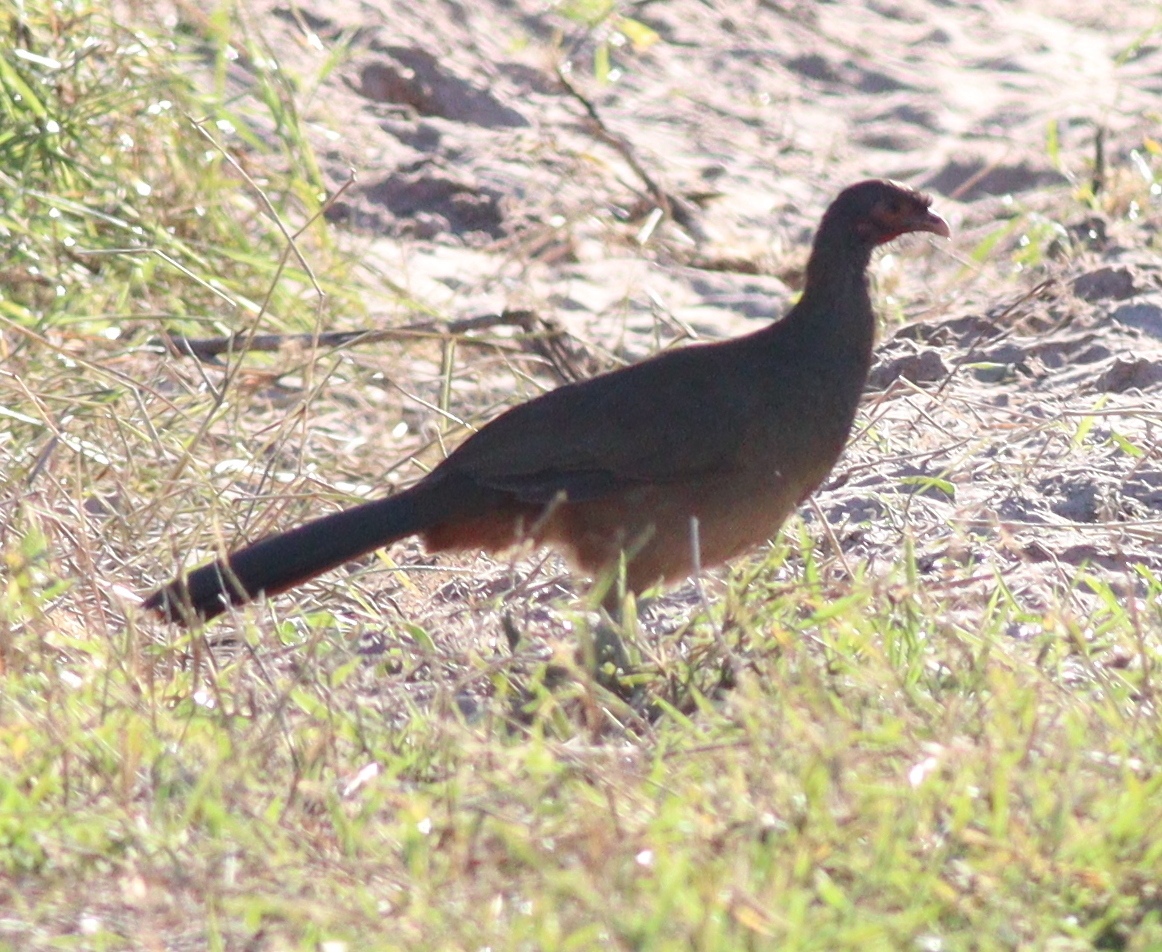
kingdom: Animalia
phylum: Chordata
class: Aves
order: Galliformes
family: Cracidae
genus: Ortalis
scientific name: Ortalis canicollis
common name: Chaco chachalaca
